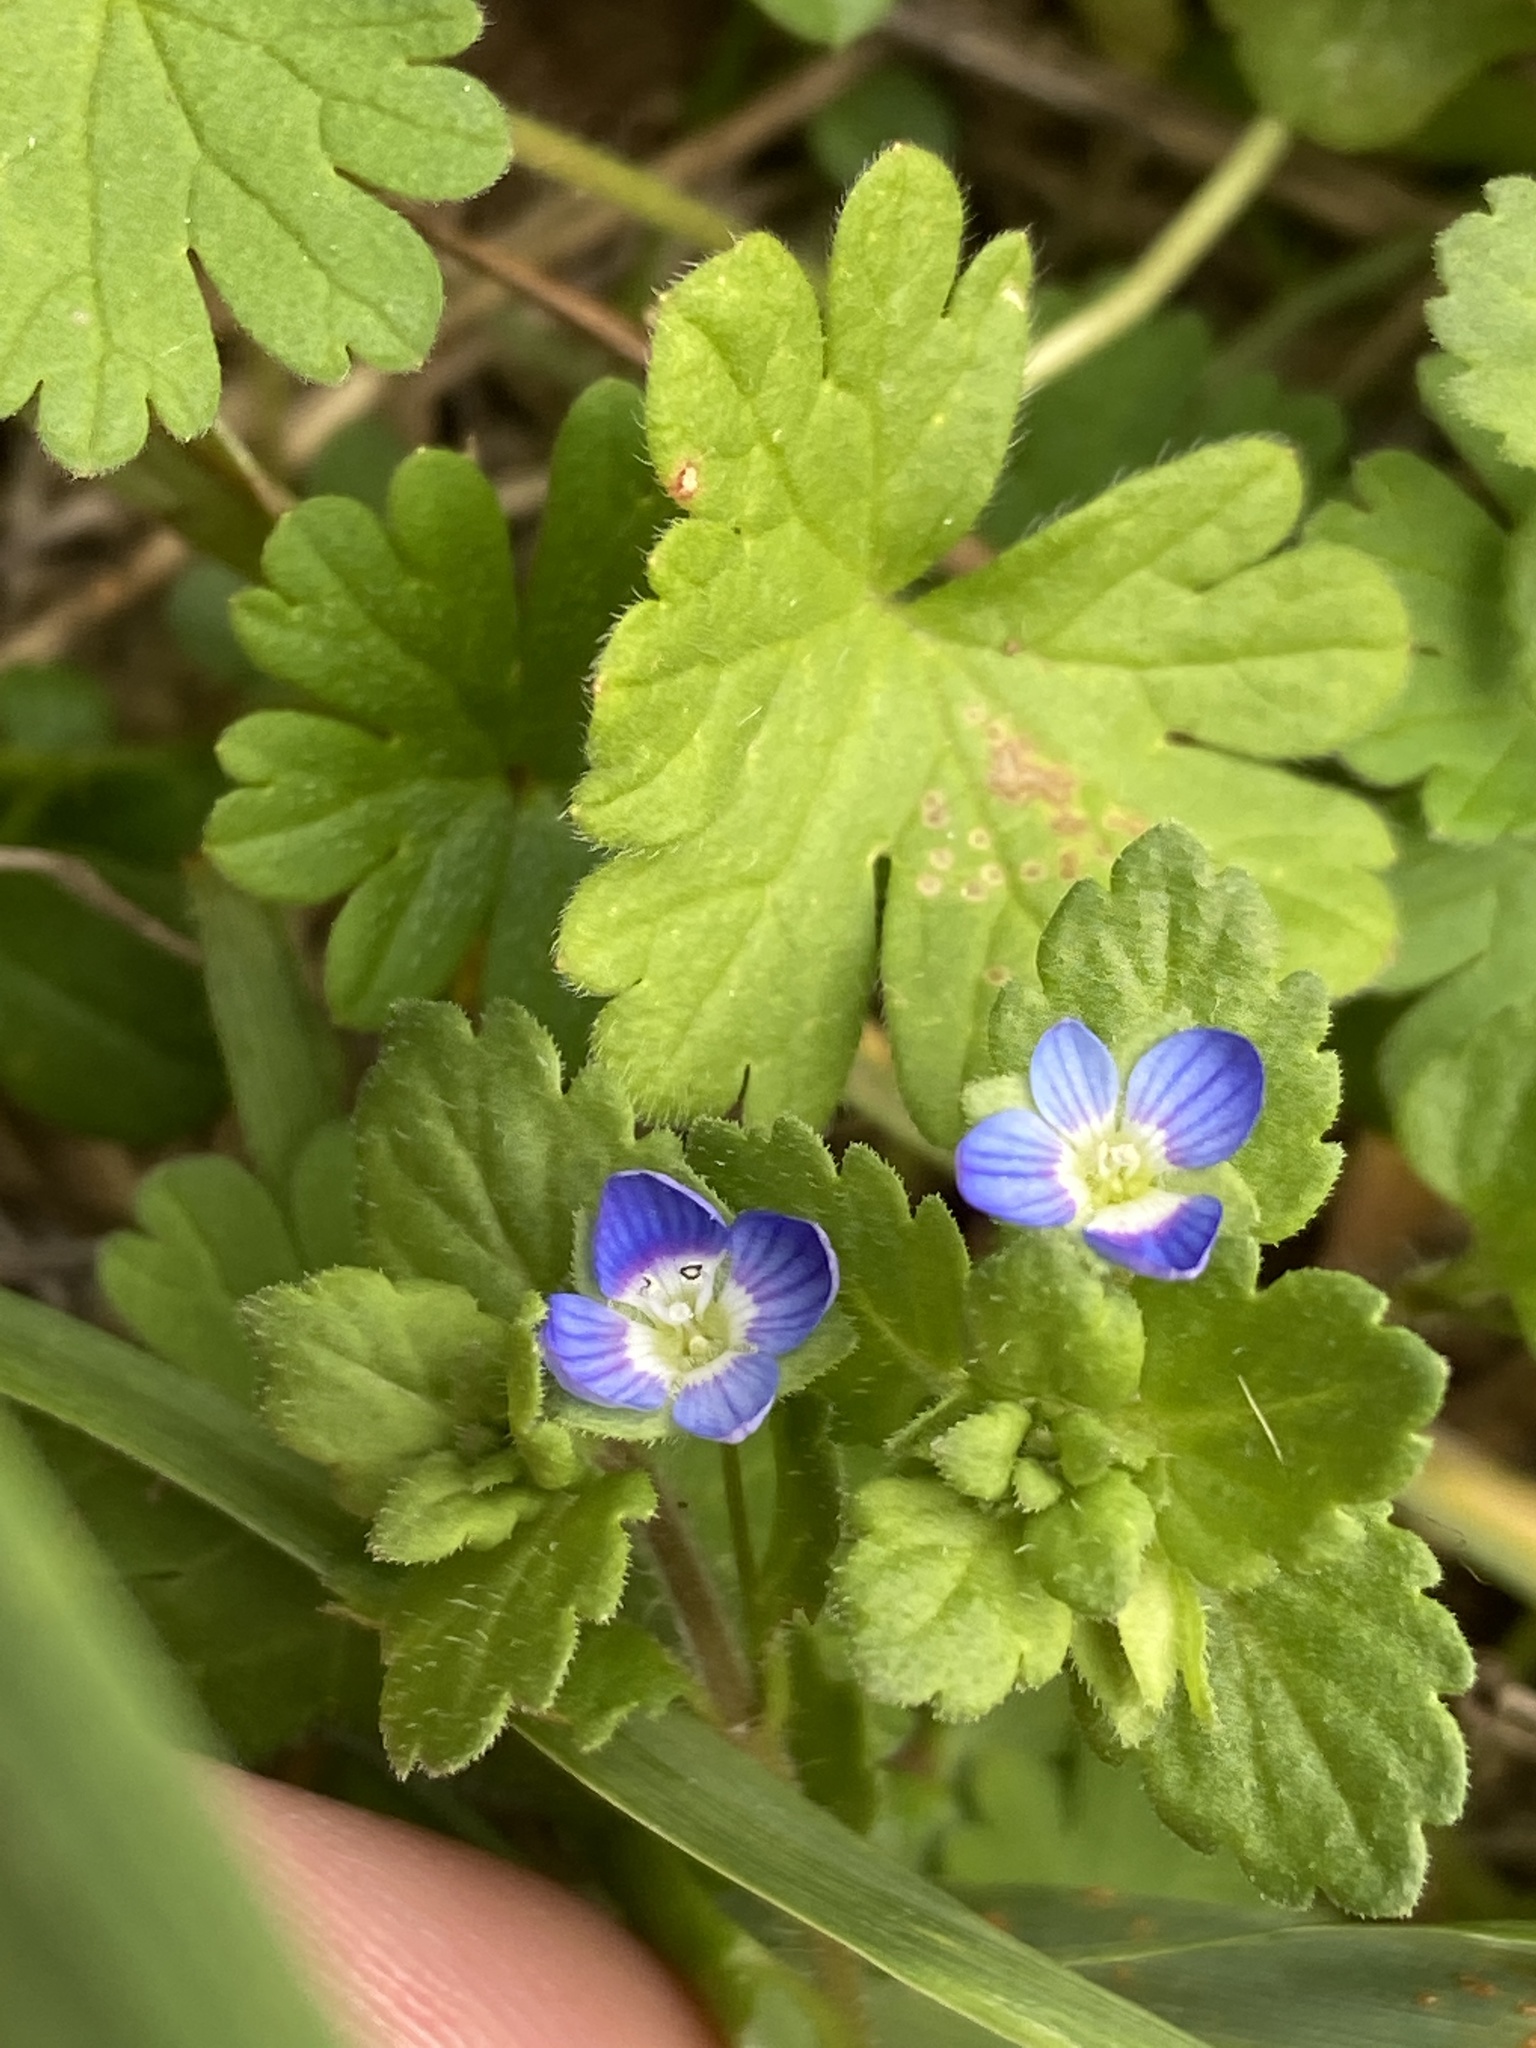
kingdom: Plantae
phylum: Tracheophyta
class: Magnoliopsida
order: Lamiales
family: Plantaginaceae
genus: Veronica
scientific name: Veronica persica
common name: Common field-speedwell
